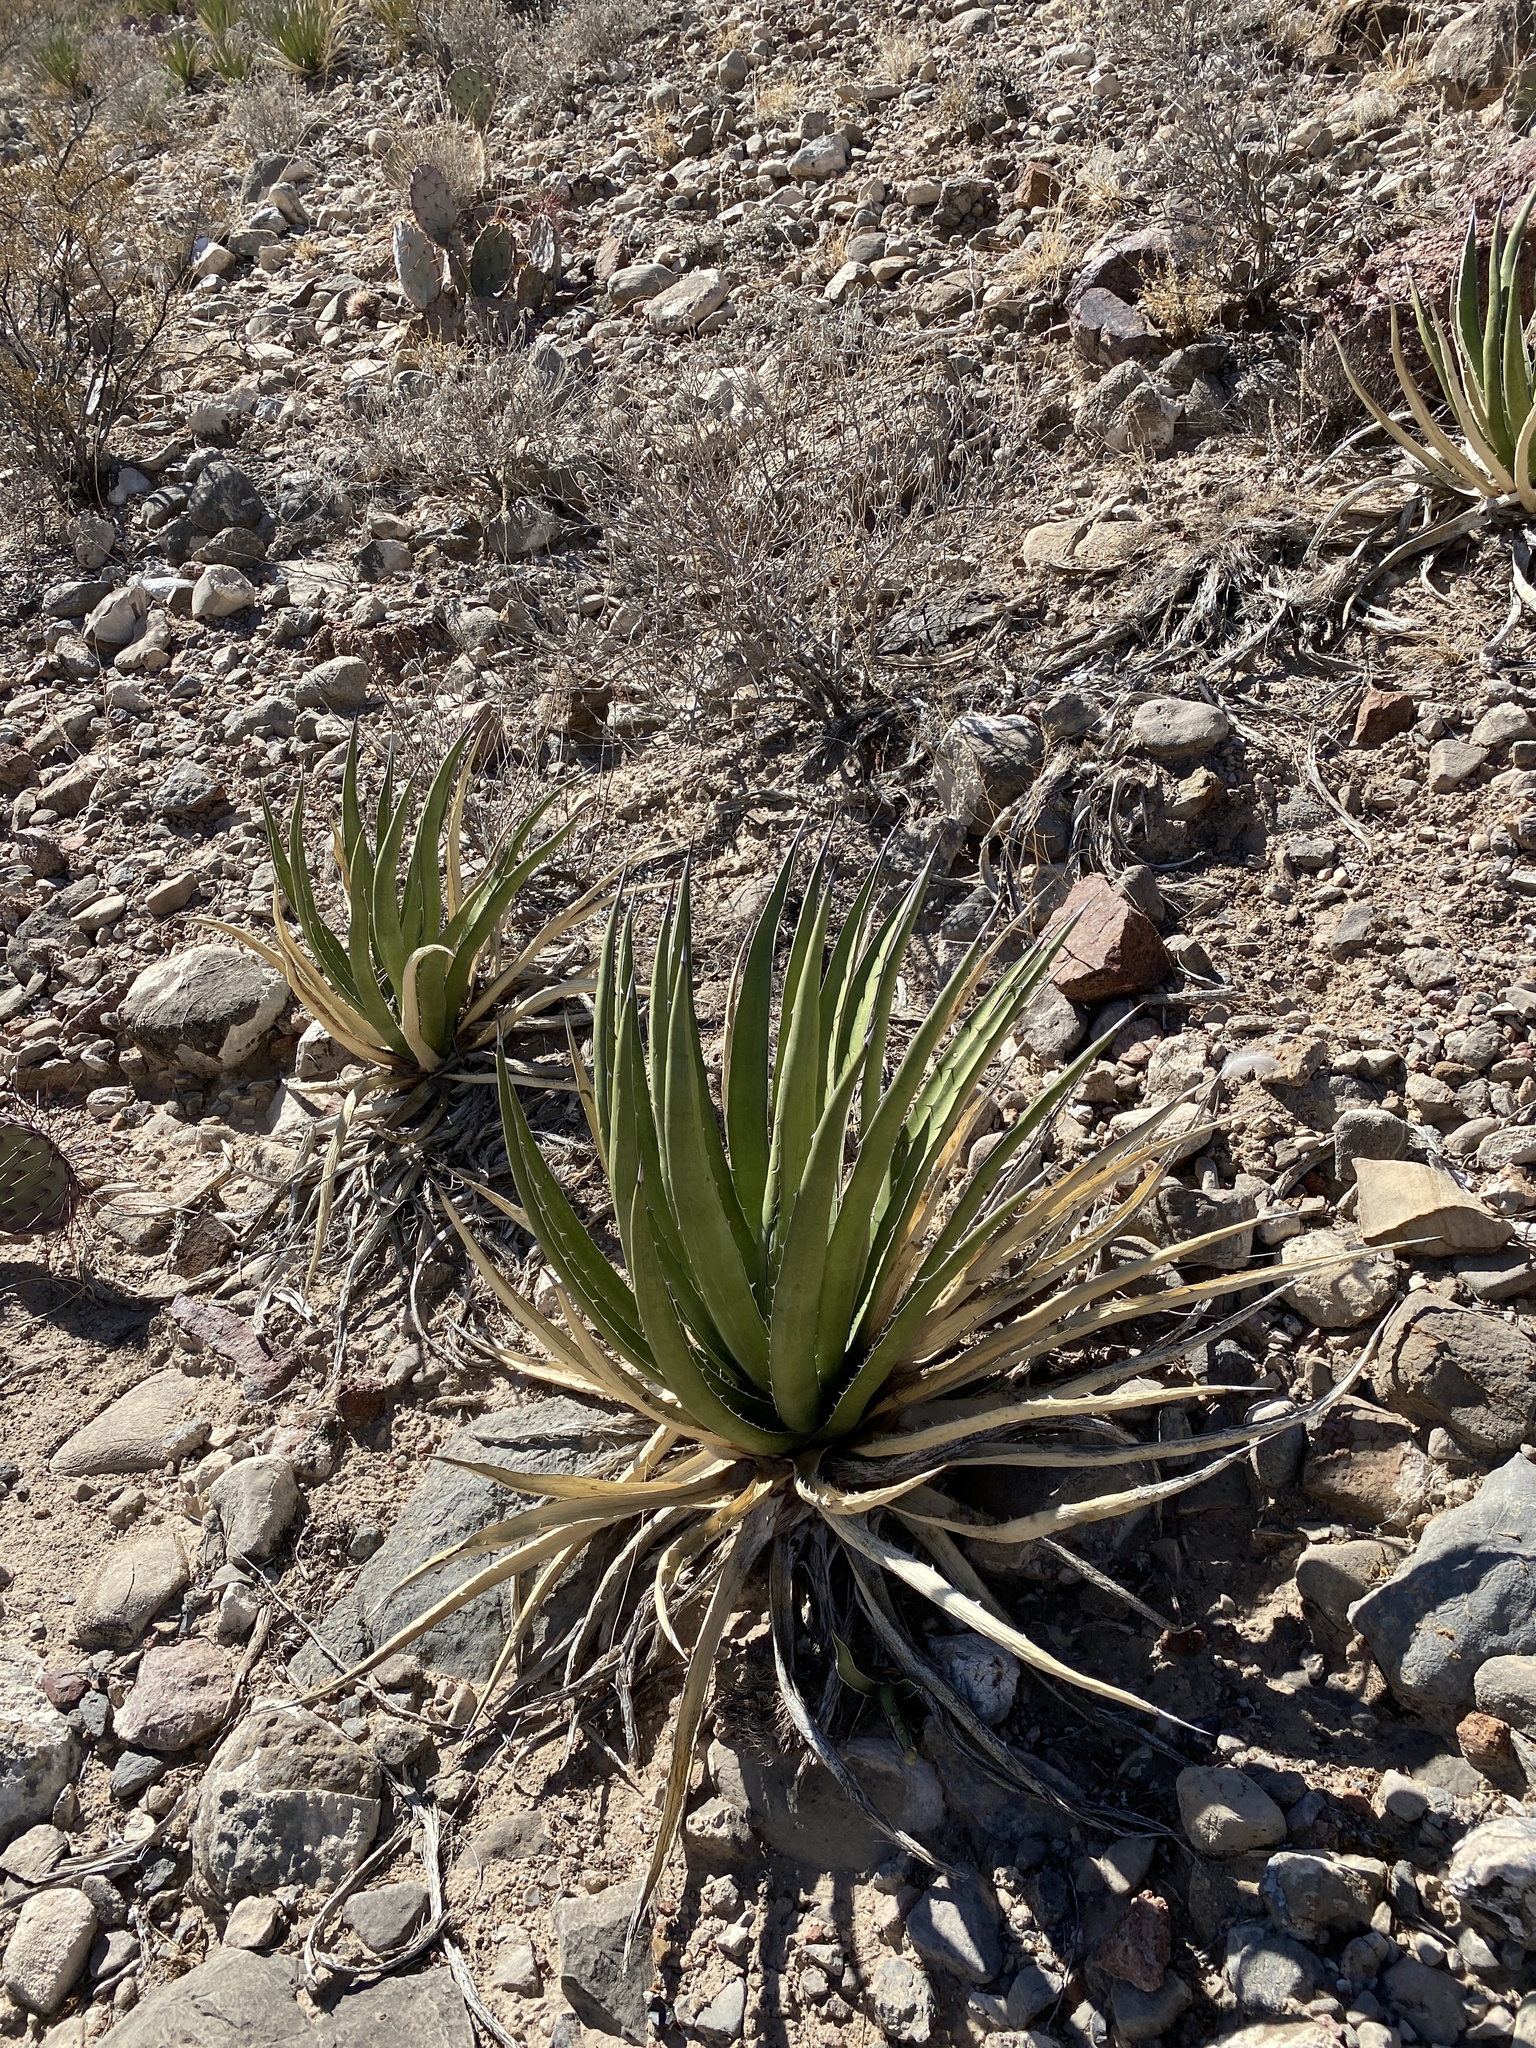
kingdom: Plantae
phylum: Tracheophyta
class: Liliopsida
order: Asparagales
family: Asparagaceae
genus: Agave
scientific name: Agave lechuguilla
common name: Lecheguilla agave
